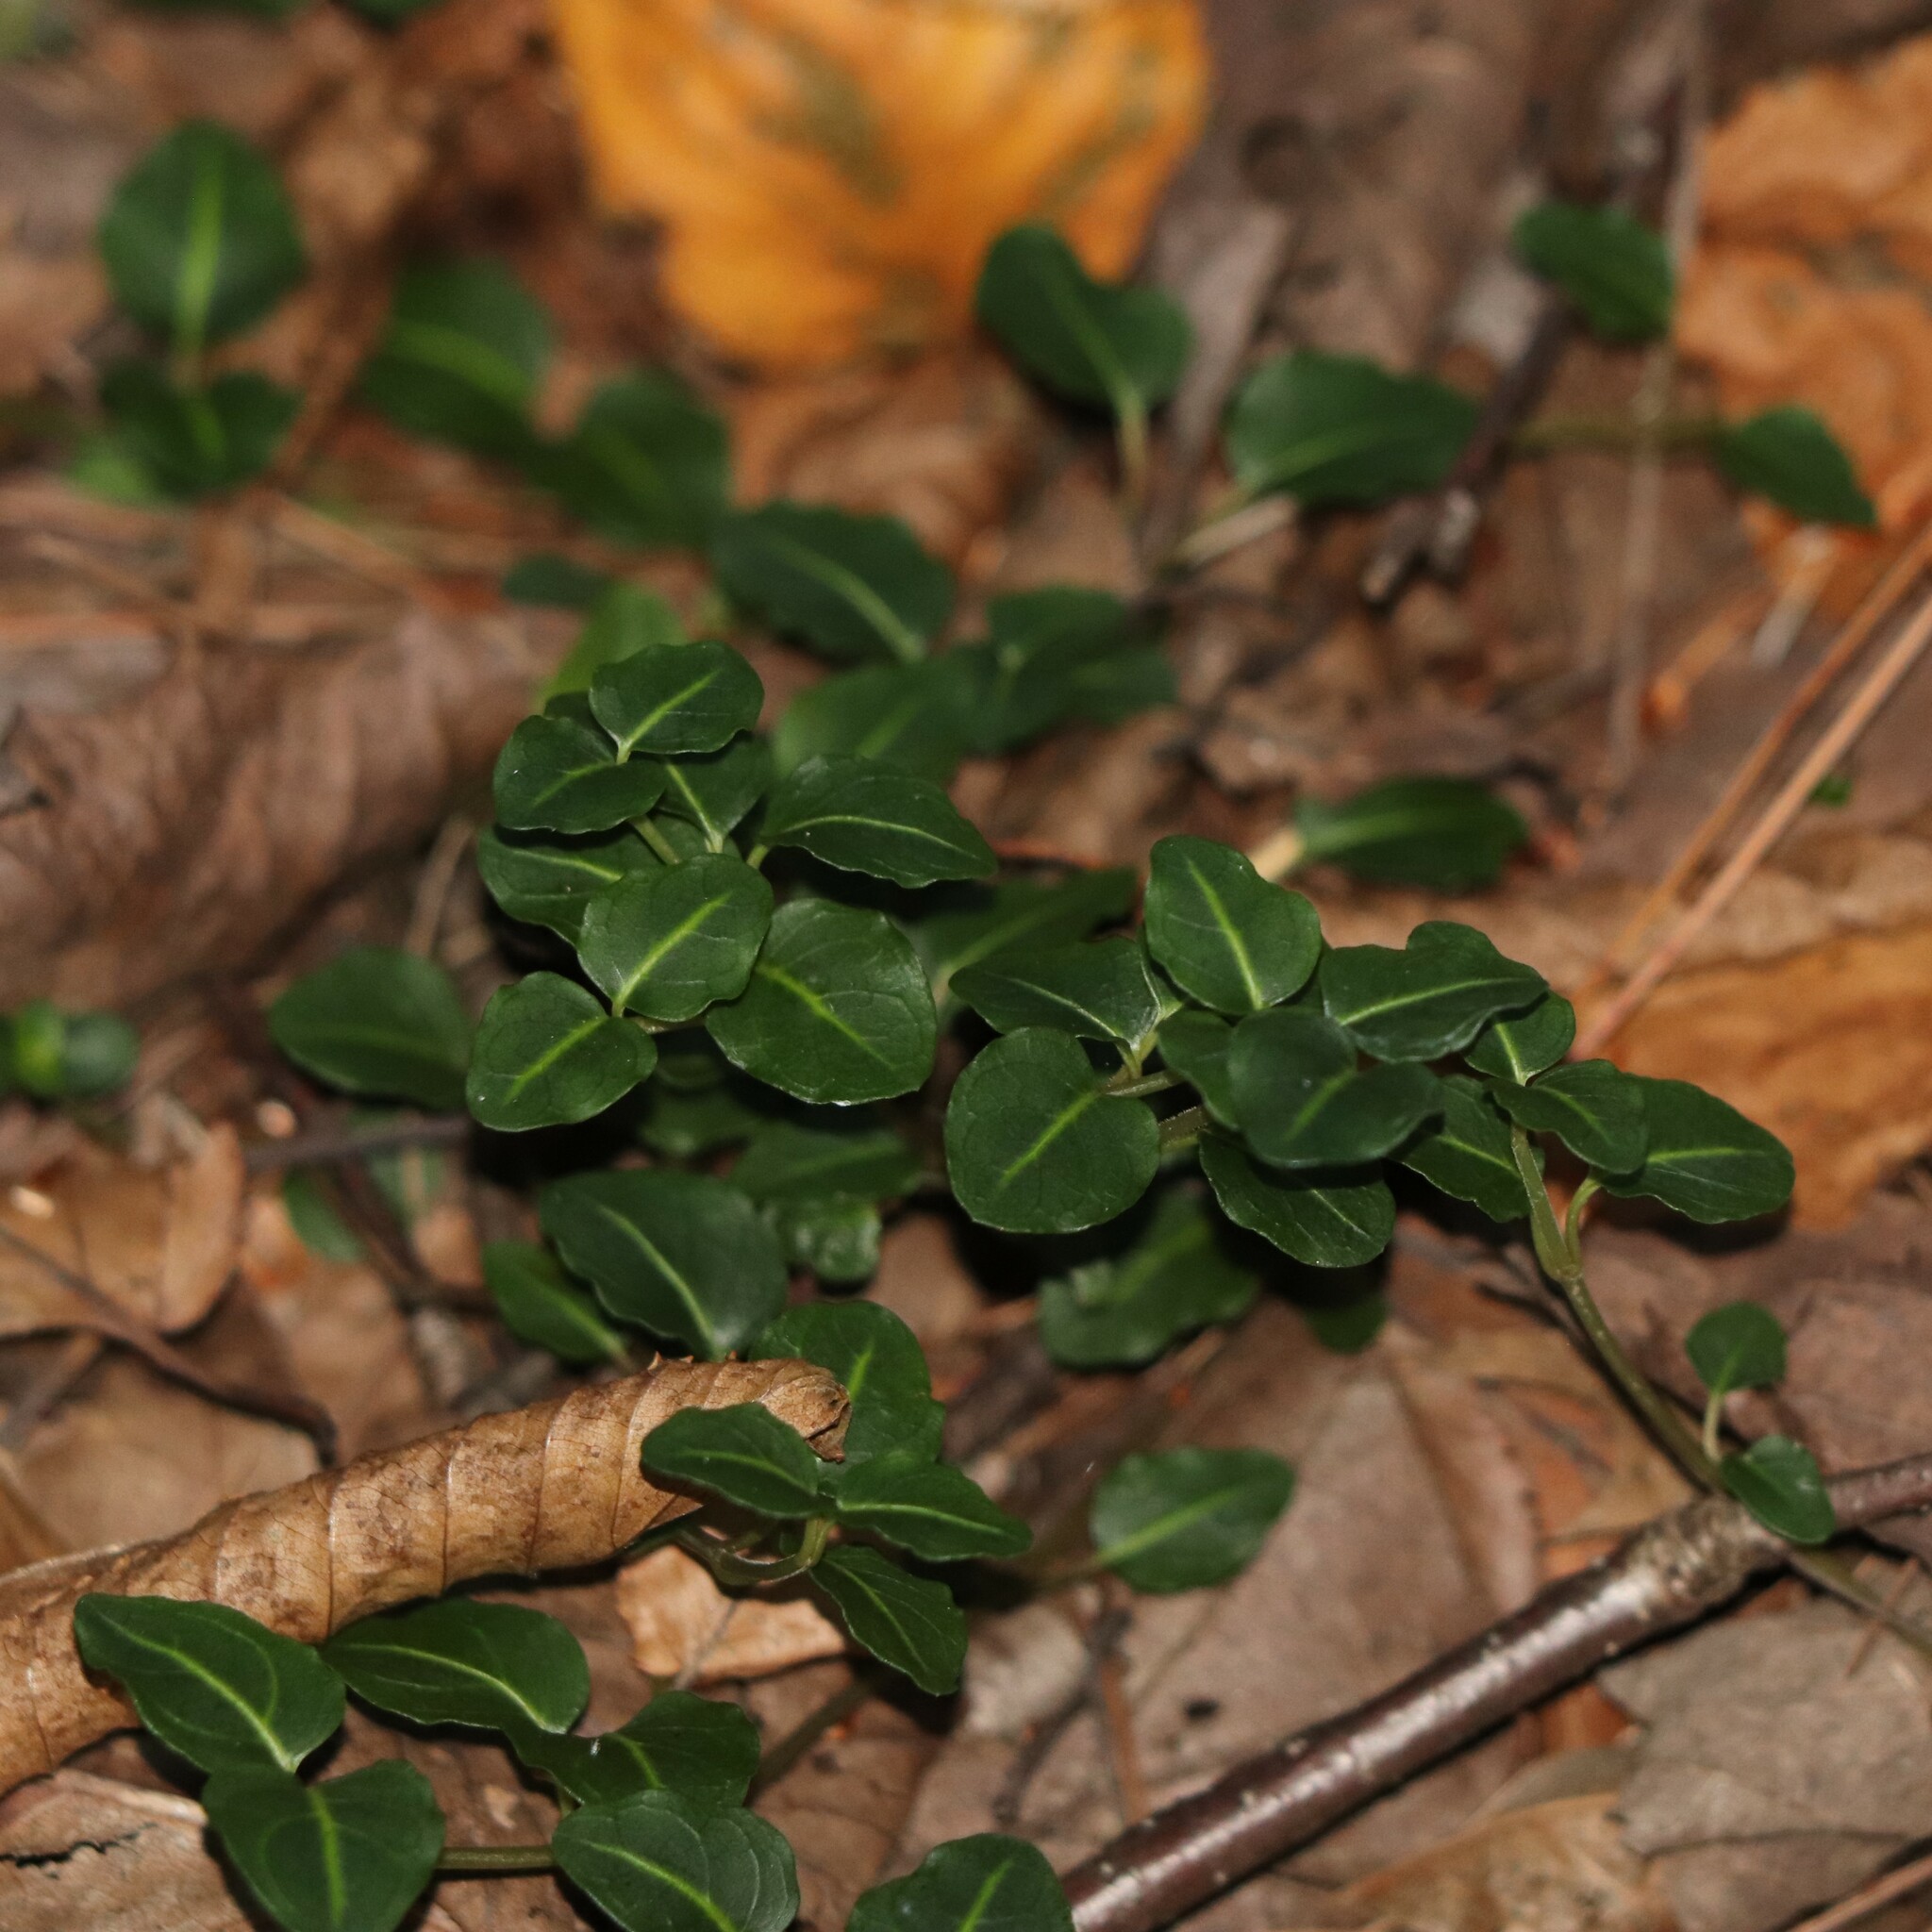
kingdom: Plantae
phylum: Tracheophyta
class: Magnoliopsida
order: Gentianales
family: Rubiaceae
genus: Mitchella
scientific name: Mitchella repens
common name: Partridge-berry
